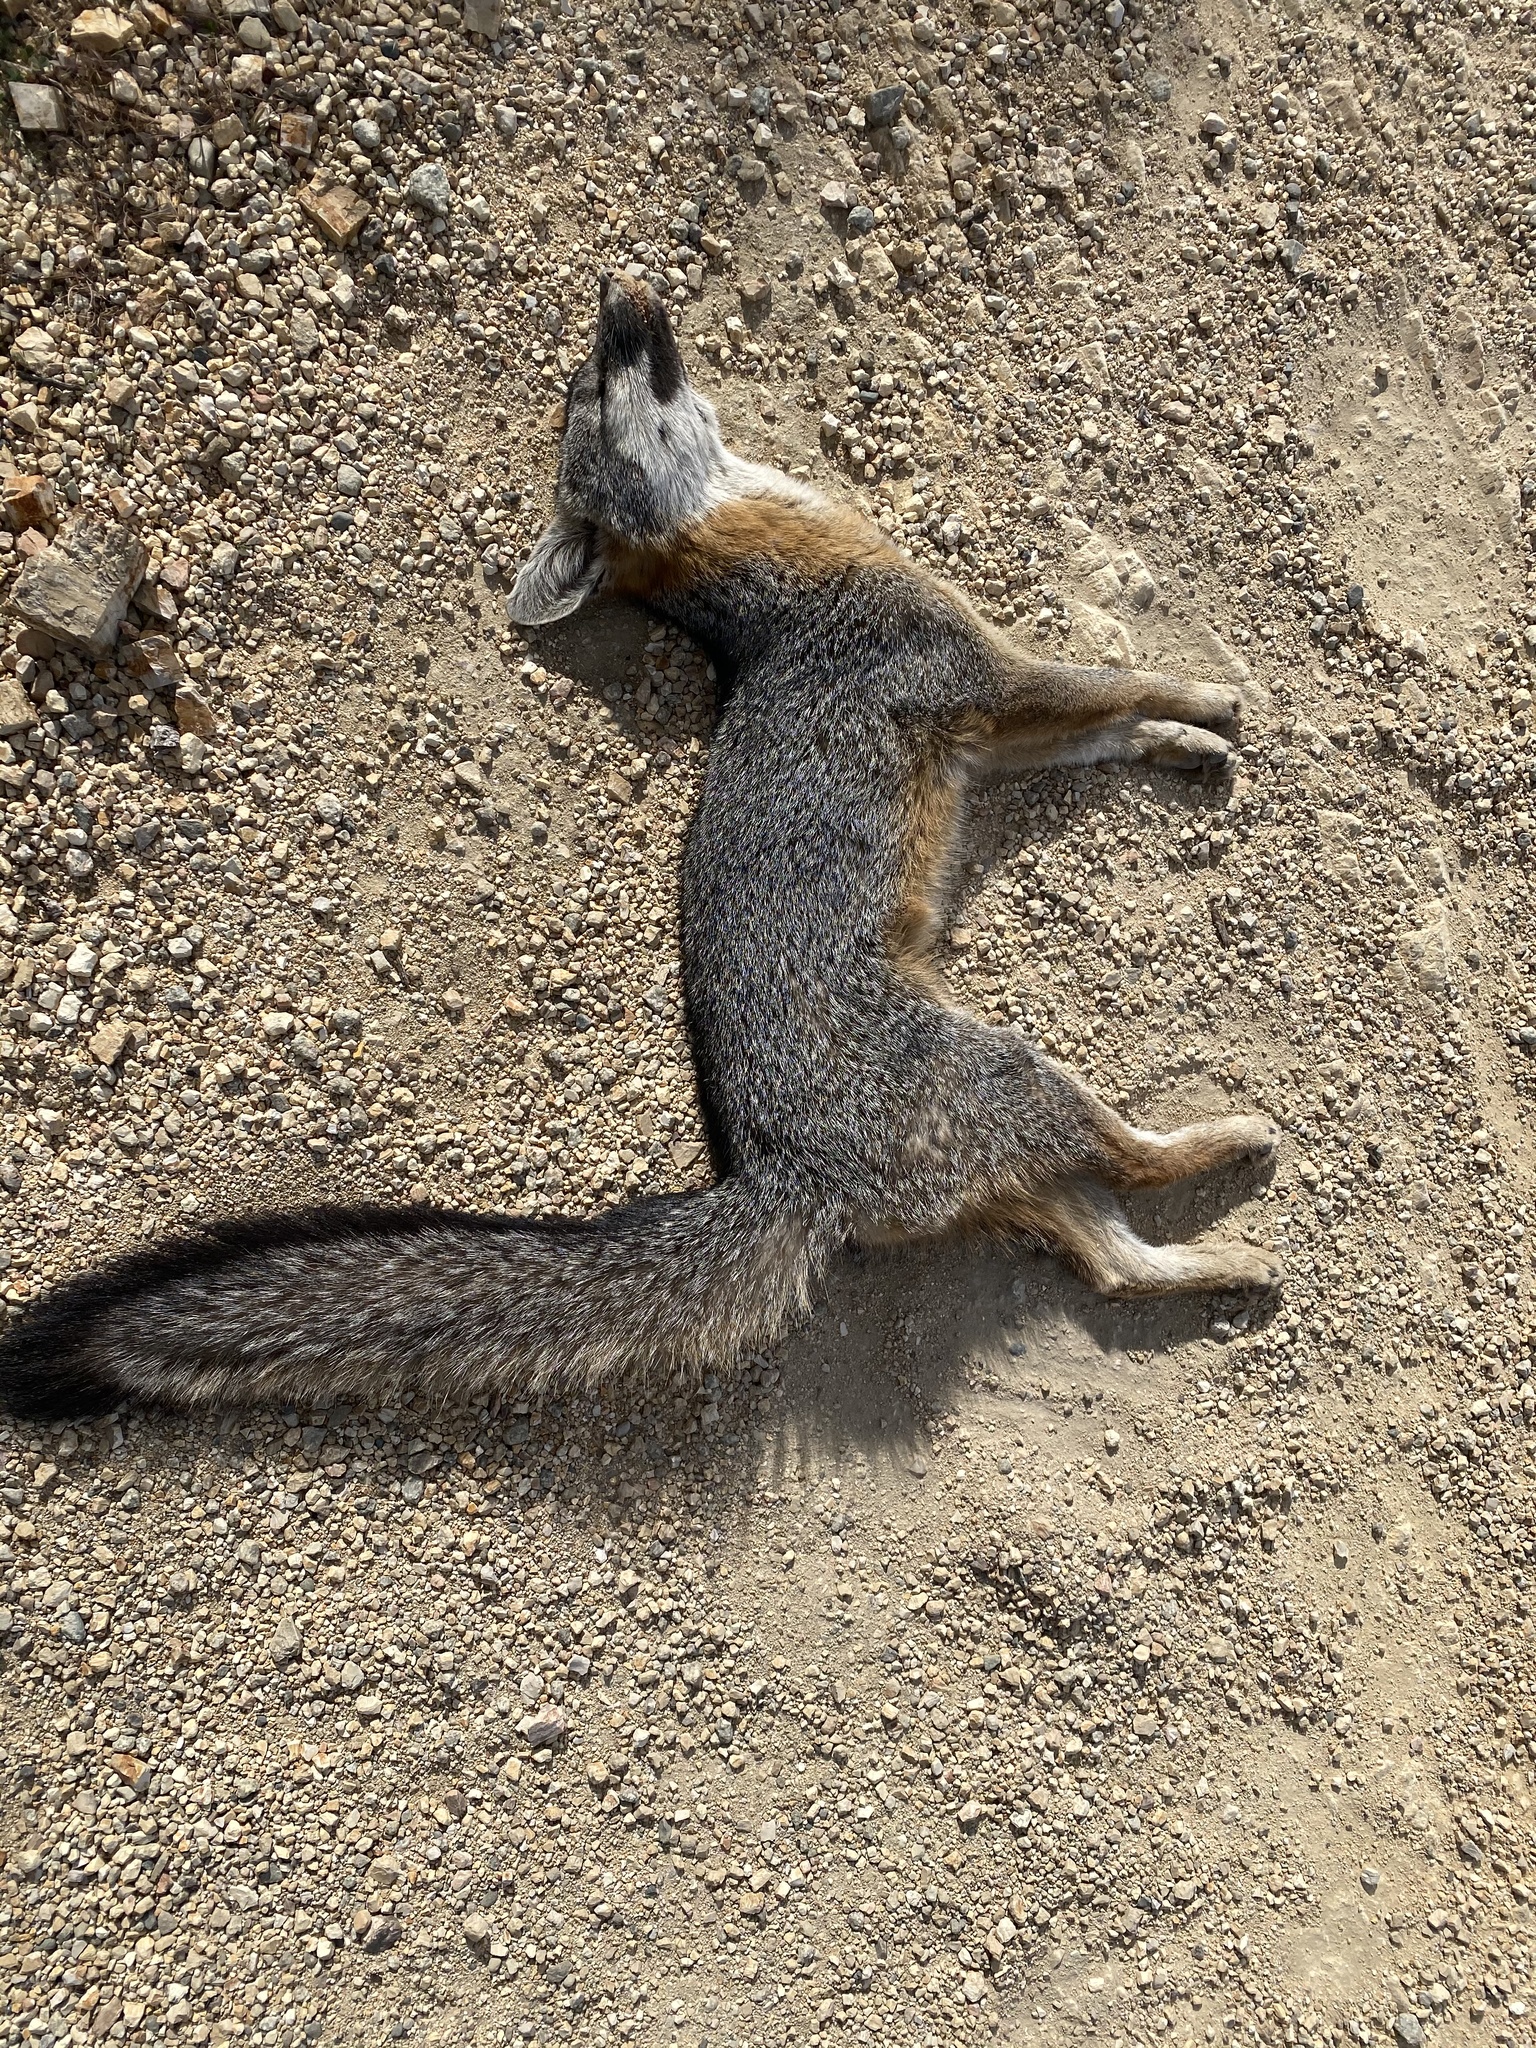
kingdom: Animalia
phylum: Chordata
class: Mammalia
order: Carnivora
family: Canidae
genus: Urocyon
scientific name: Urocyon cinereoargenteus
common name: Gray fox
